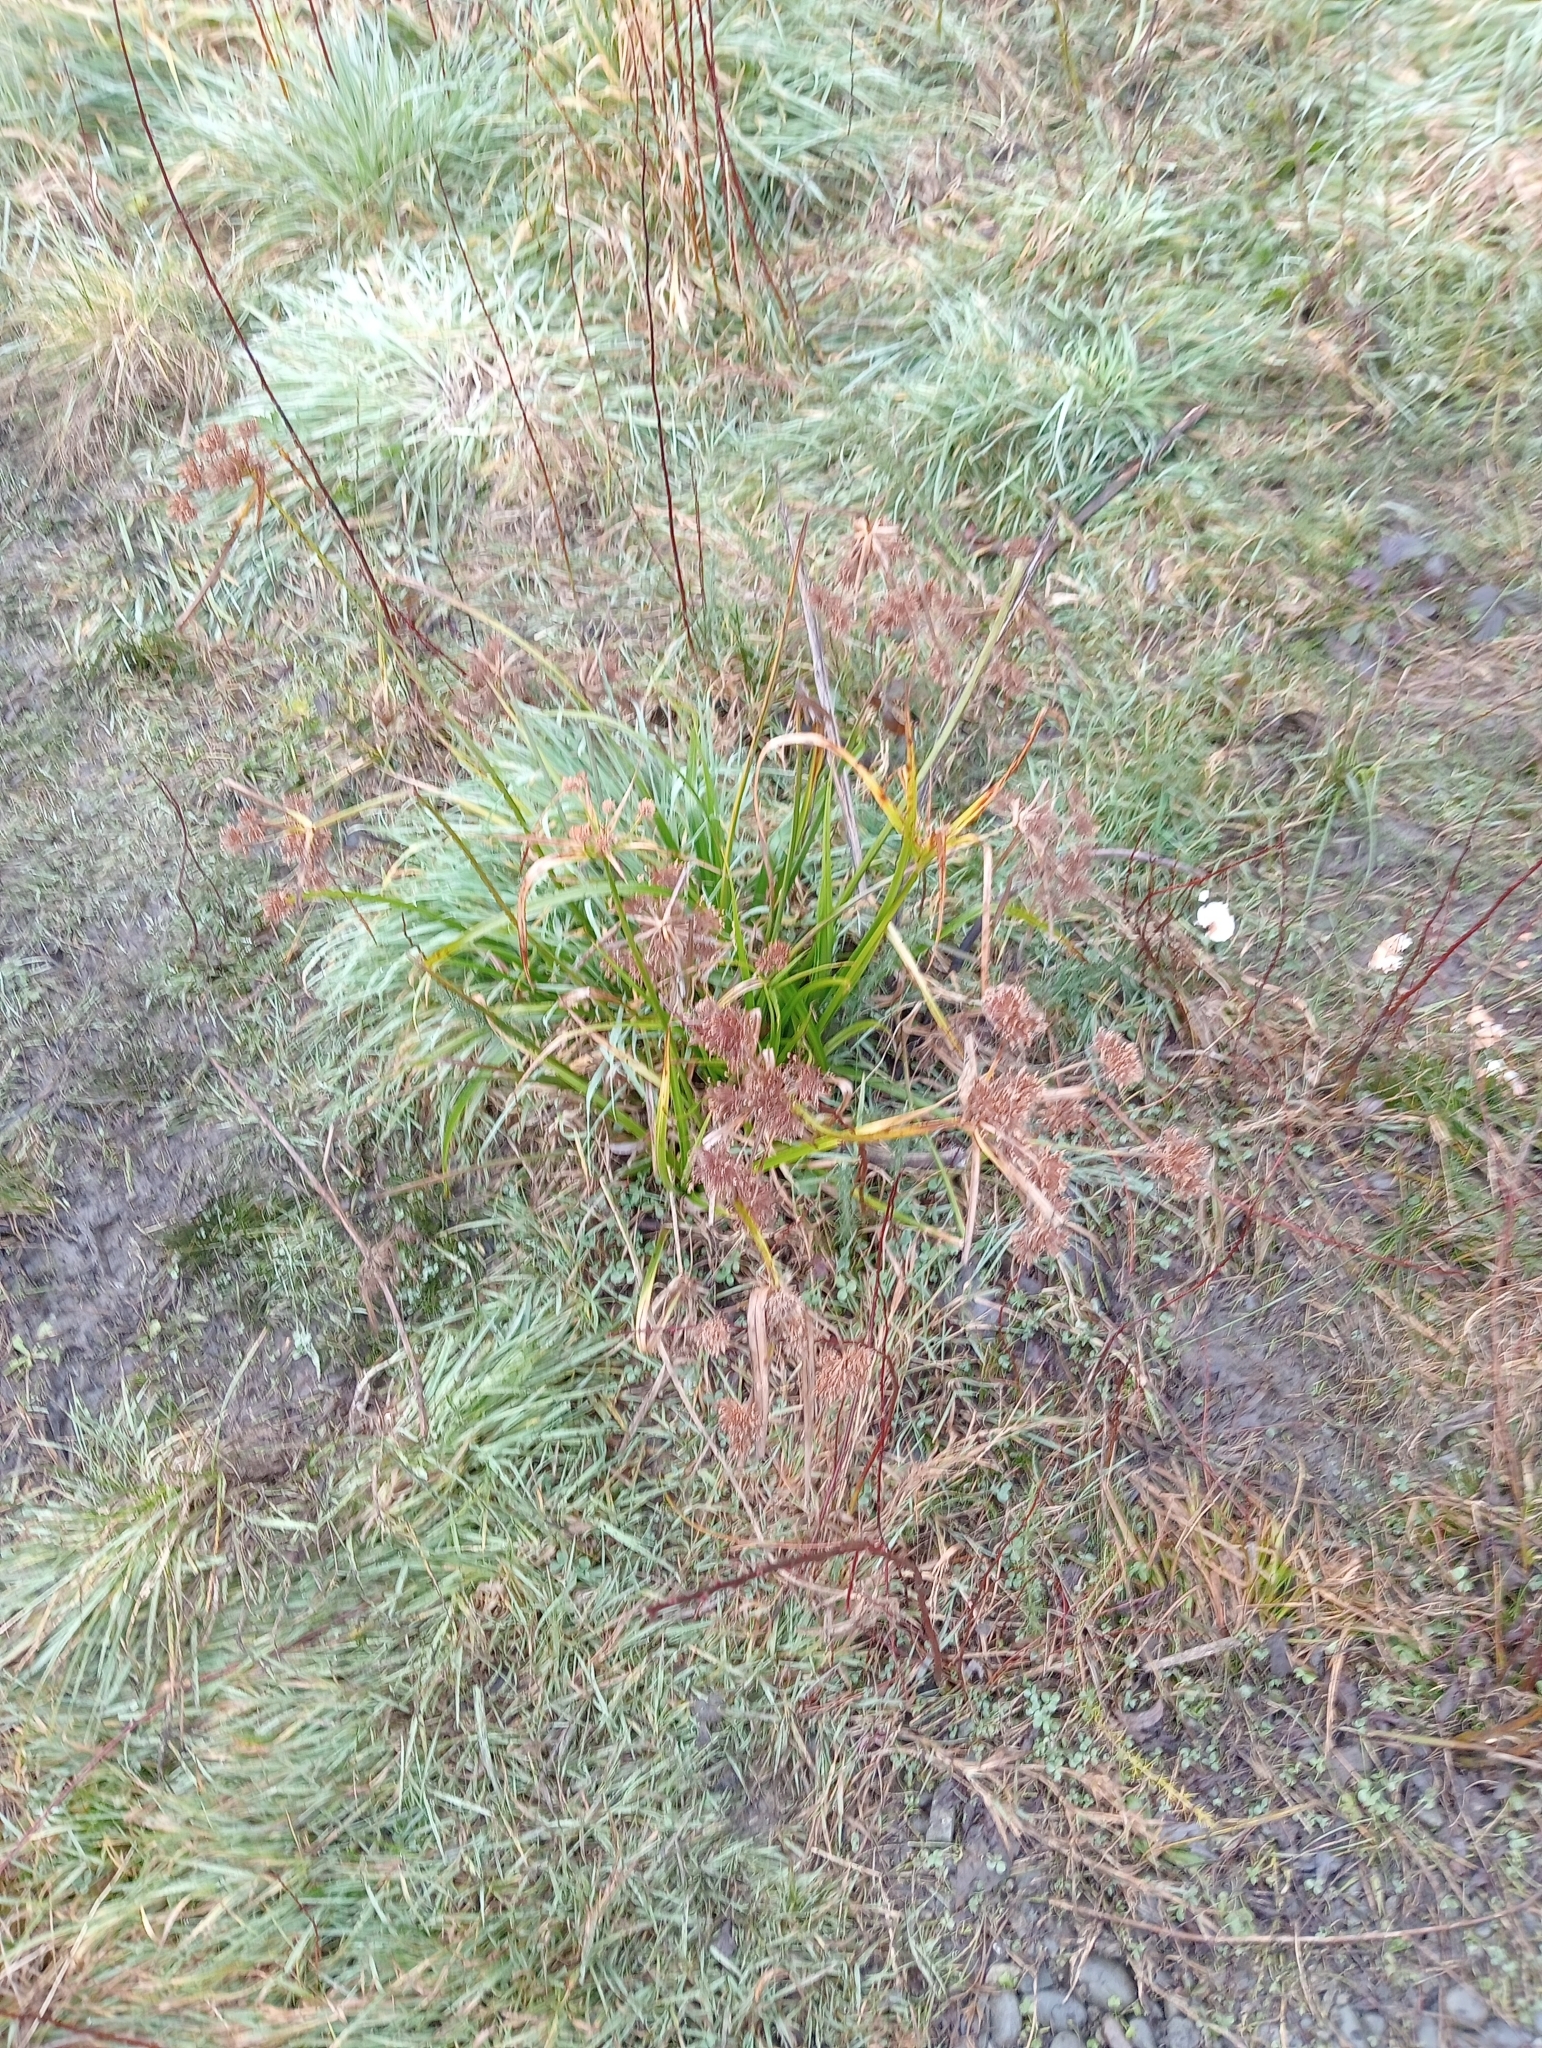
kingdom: Plantae
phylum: Tracheophyta
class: Liliopsida
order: Poales
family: Cyperaceae
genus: Cyperus
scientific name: Cyperus eragrostis
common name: Tall flatsedge
